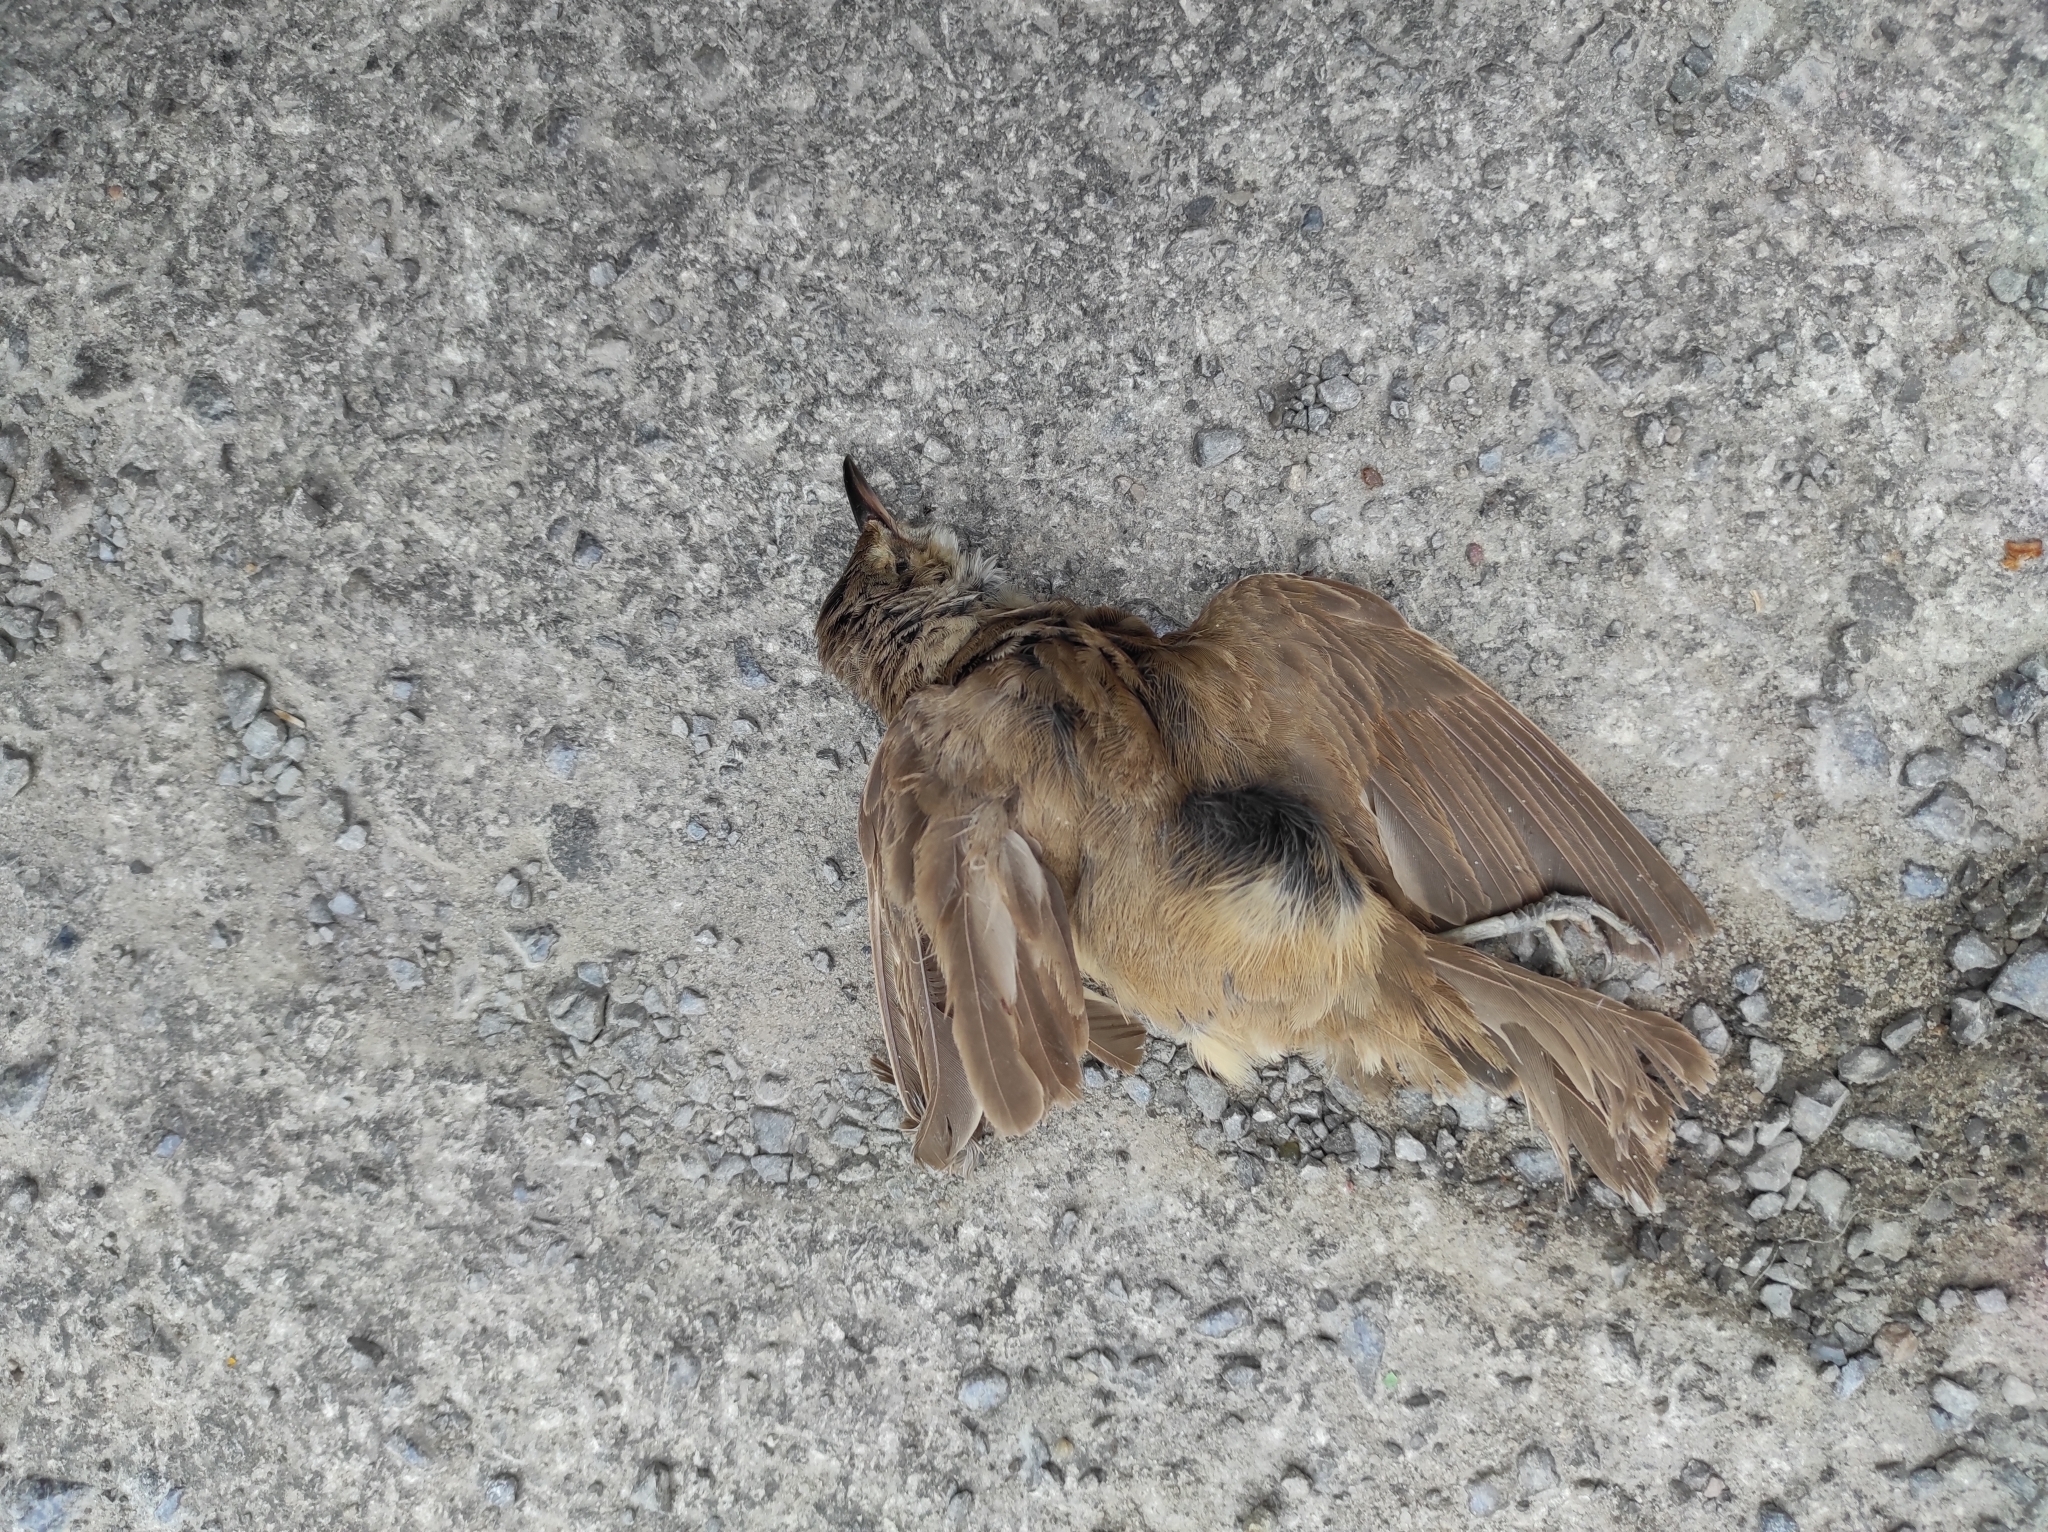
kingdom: Animalia
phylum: Chordata
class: Aves
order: Passeriformes
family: Acrocephalidae
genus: Acrocephalus
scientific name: Acrocephalus arundinaceus
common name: Great reed warbler
